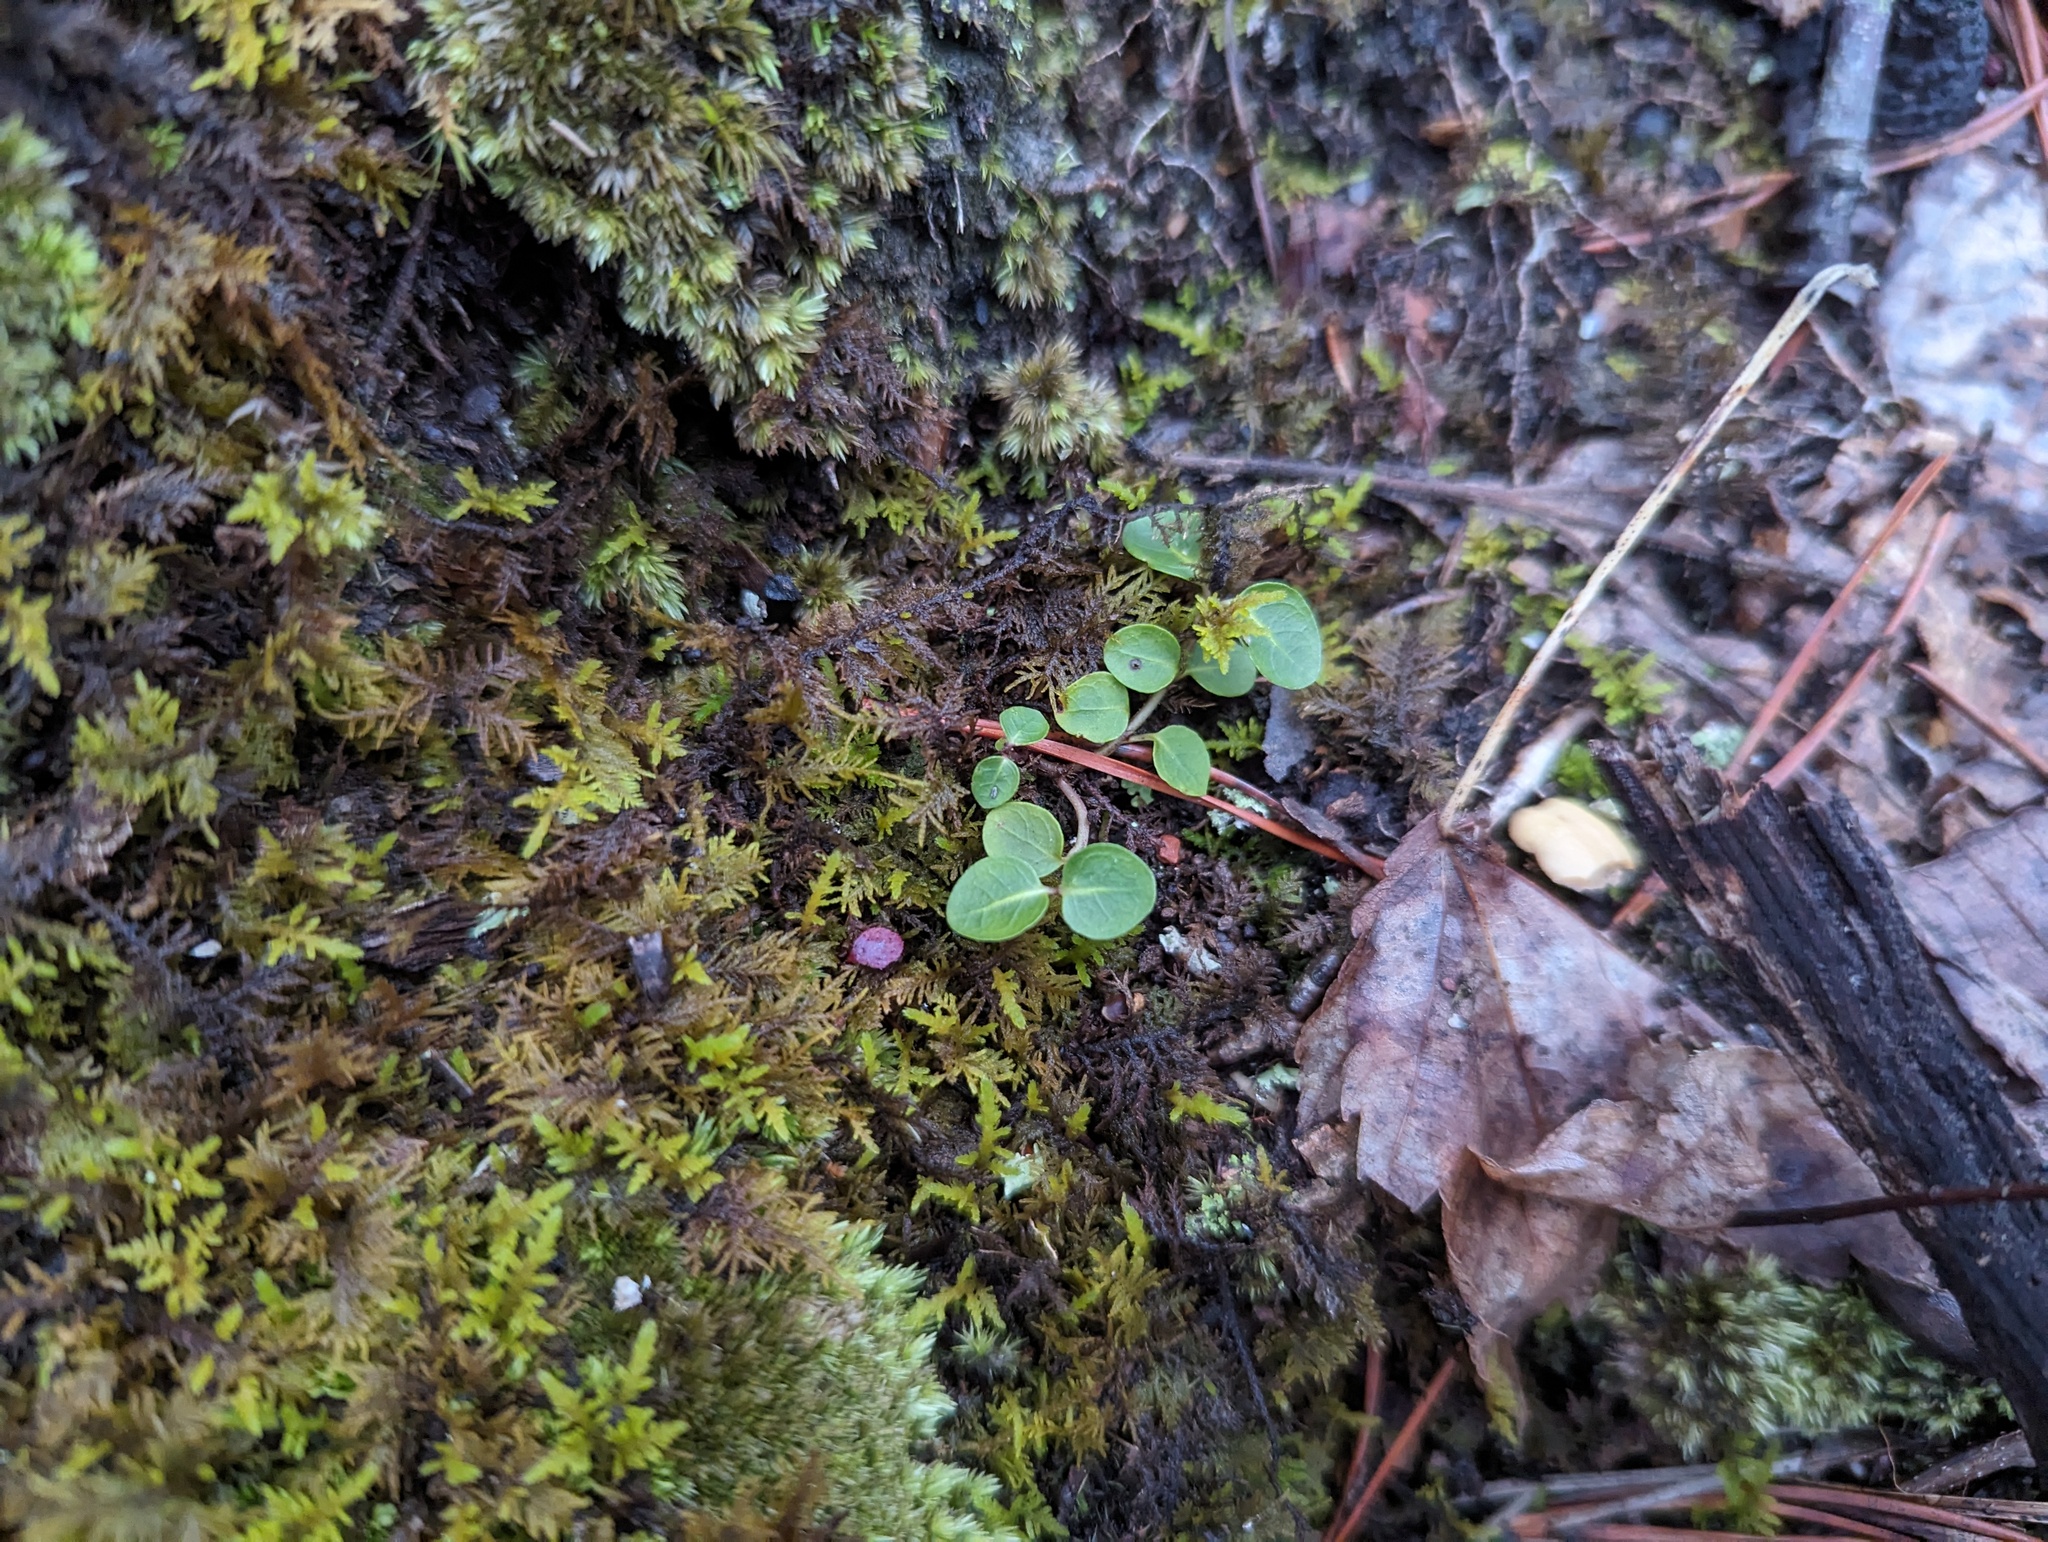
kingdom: Plantae
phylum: Tracheophyta
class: Magnoliopsida
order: Gentianales
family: Rubiaceae
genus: Mitchella
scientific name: Mitchella repens
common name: Partridge-berry
